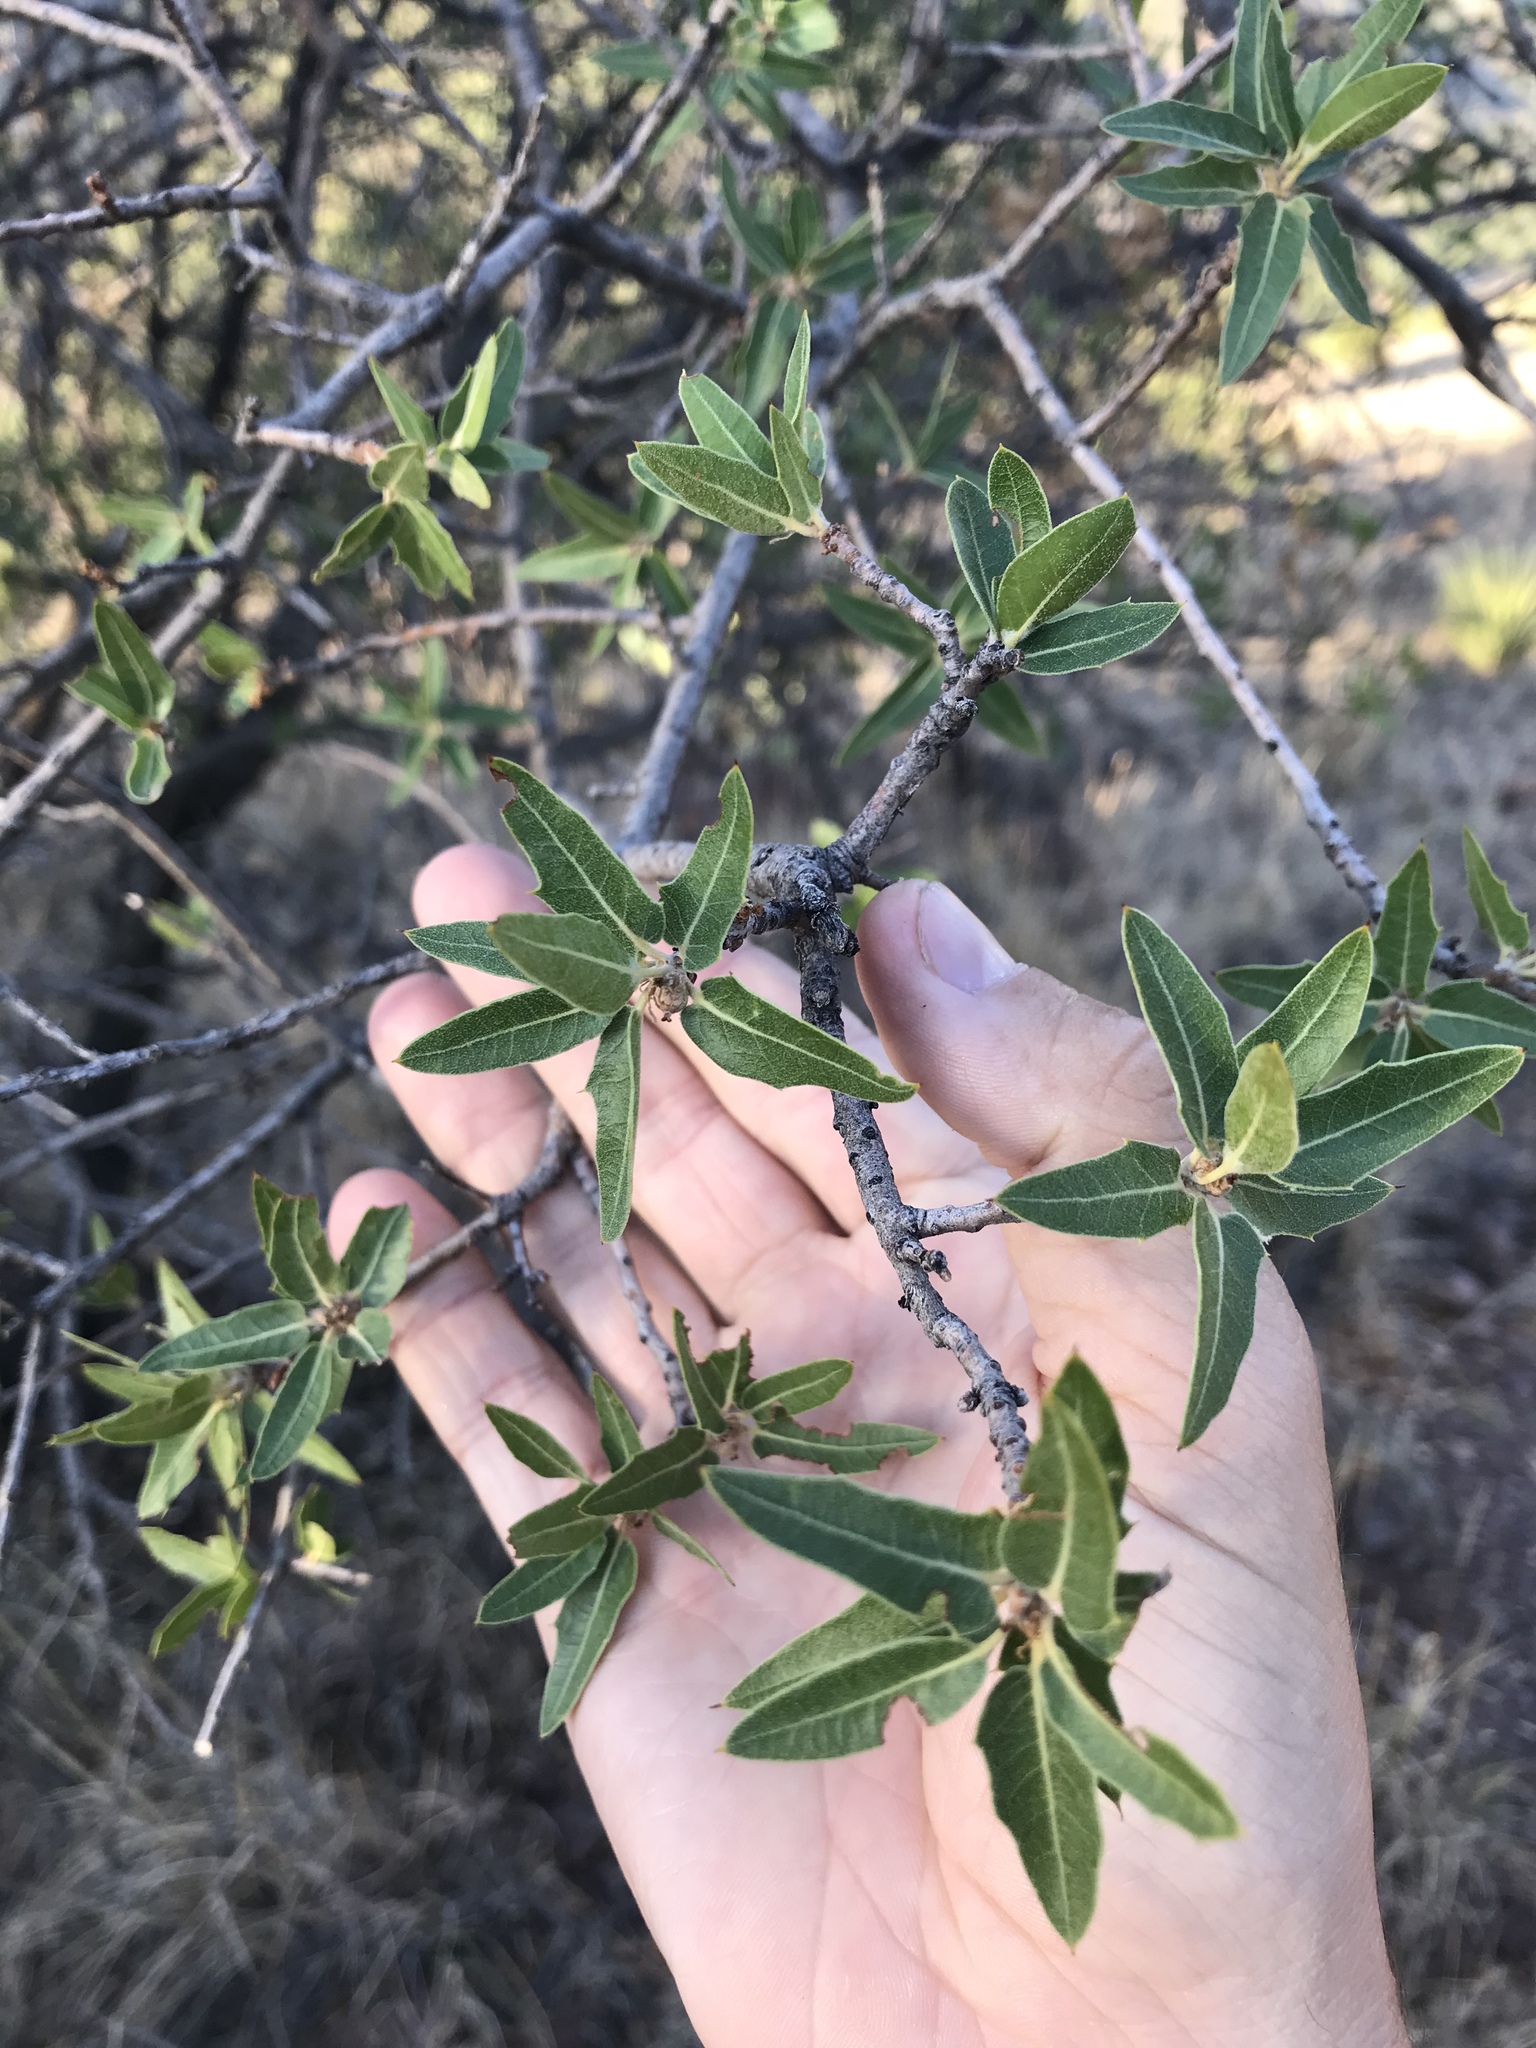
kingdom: Plantae
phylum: Tracheophyta
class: Magnoliopsida
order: Fagales
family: Fagaceae
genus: Quercus
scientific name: Quercus emoryi
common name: Emory oak
